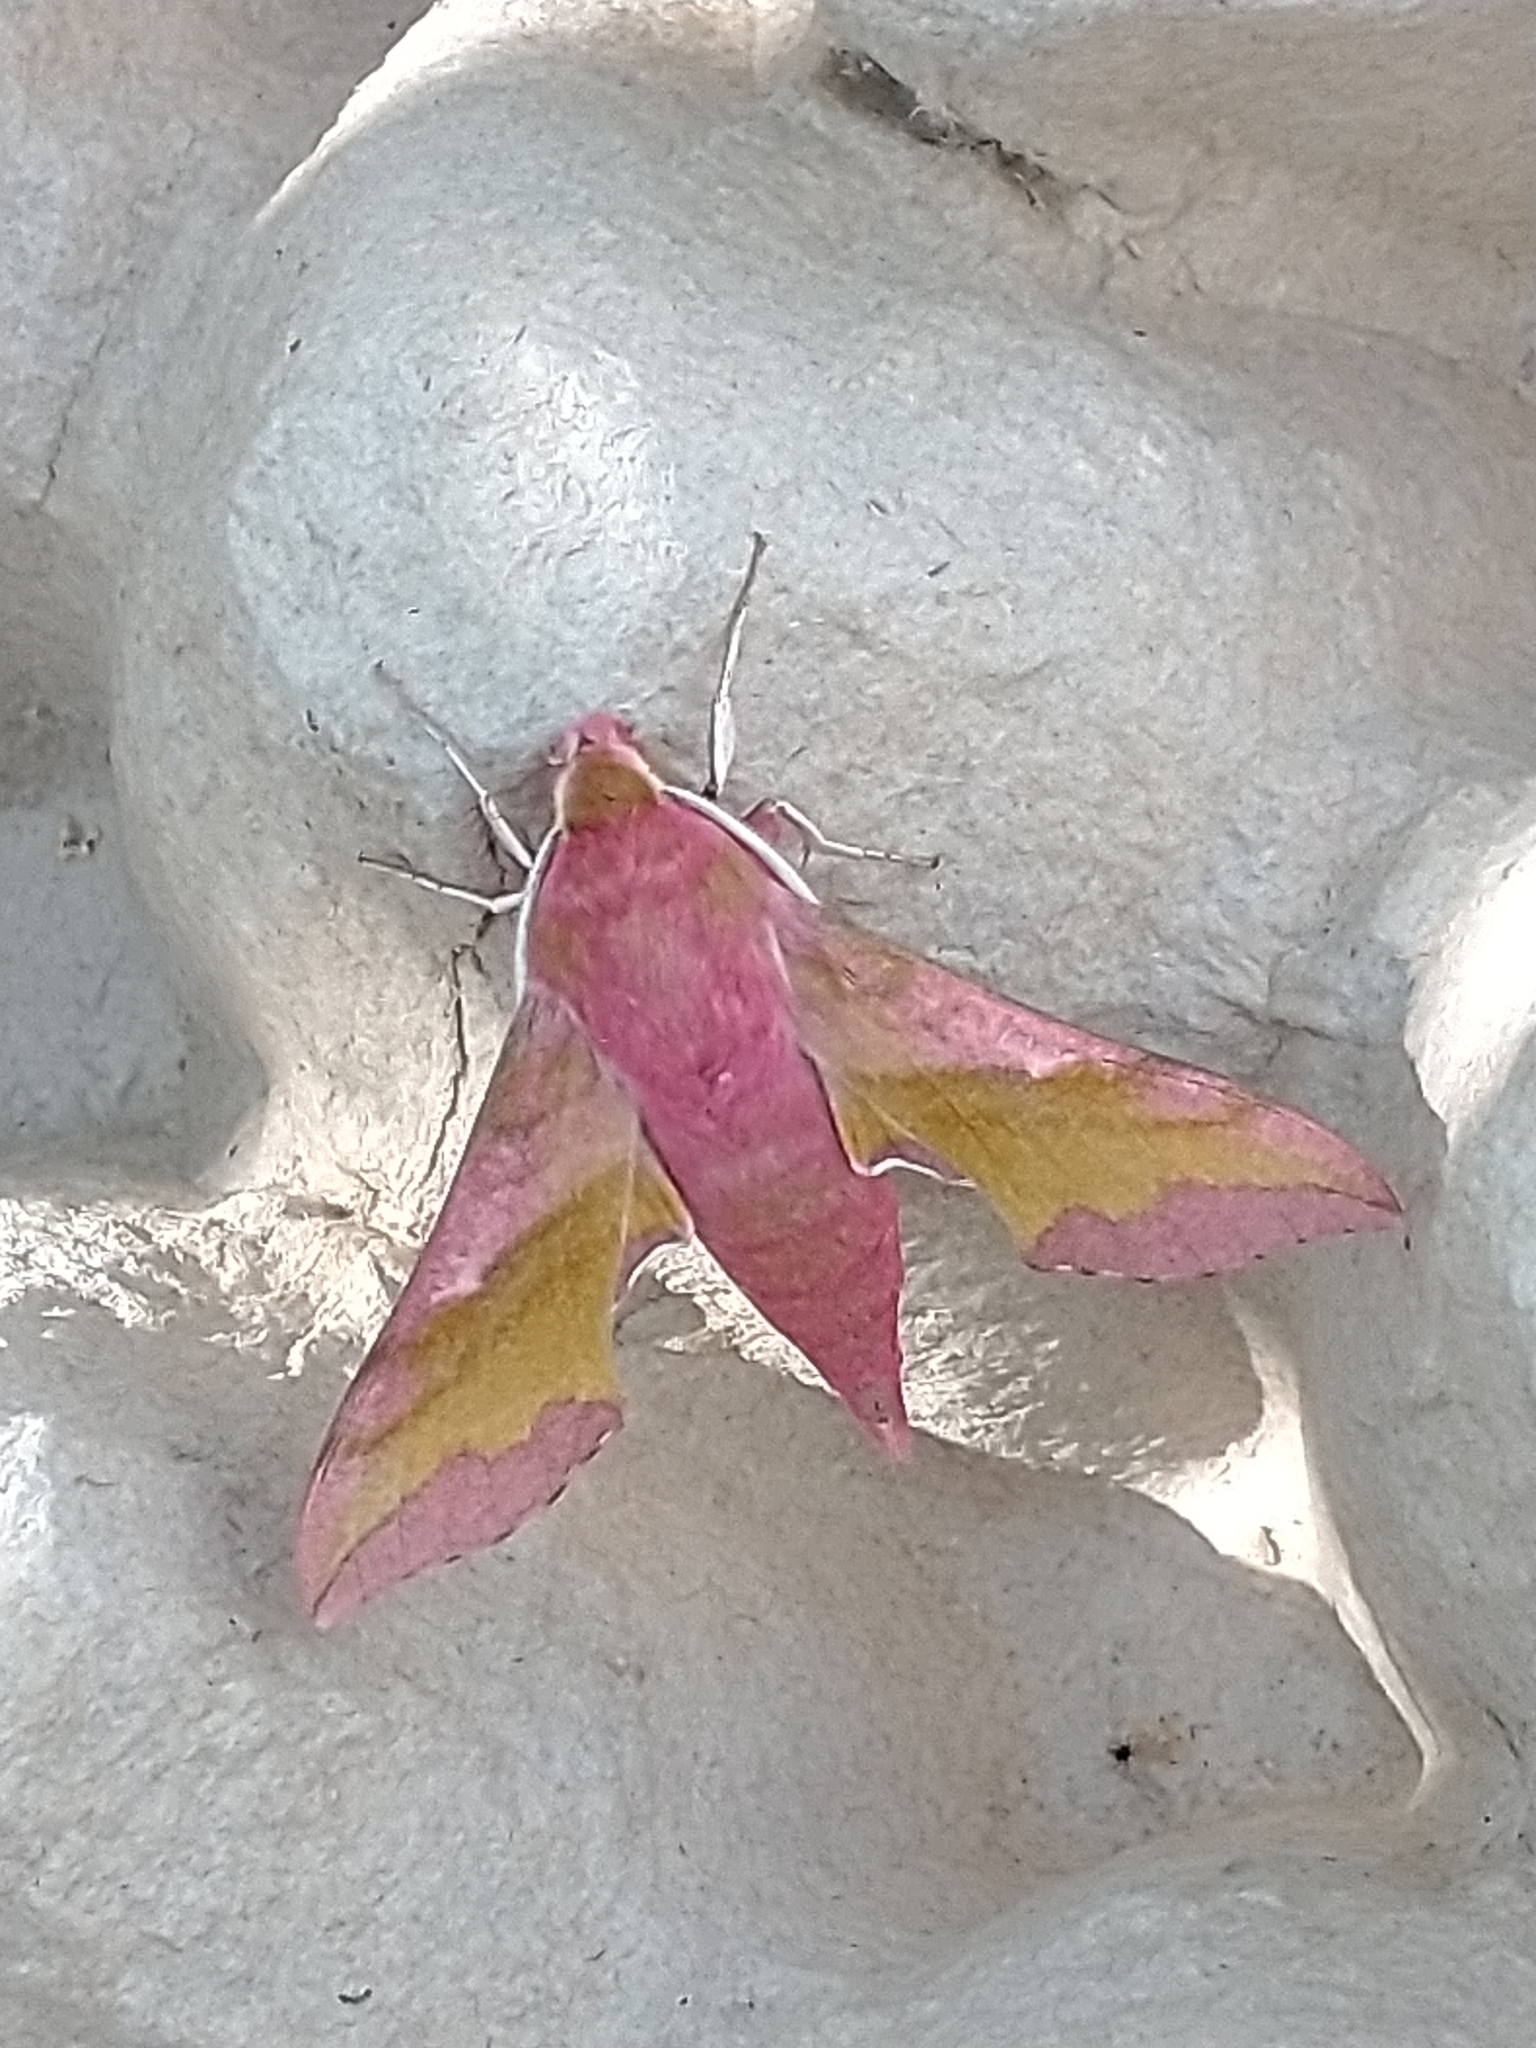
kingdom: Animalia
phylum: Arthropoda
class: Insecta
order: Lepidoptera
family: Sphingidae
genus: Deilephila
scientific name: Deilephila porcellus
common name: Small elephant hawk-moth
